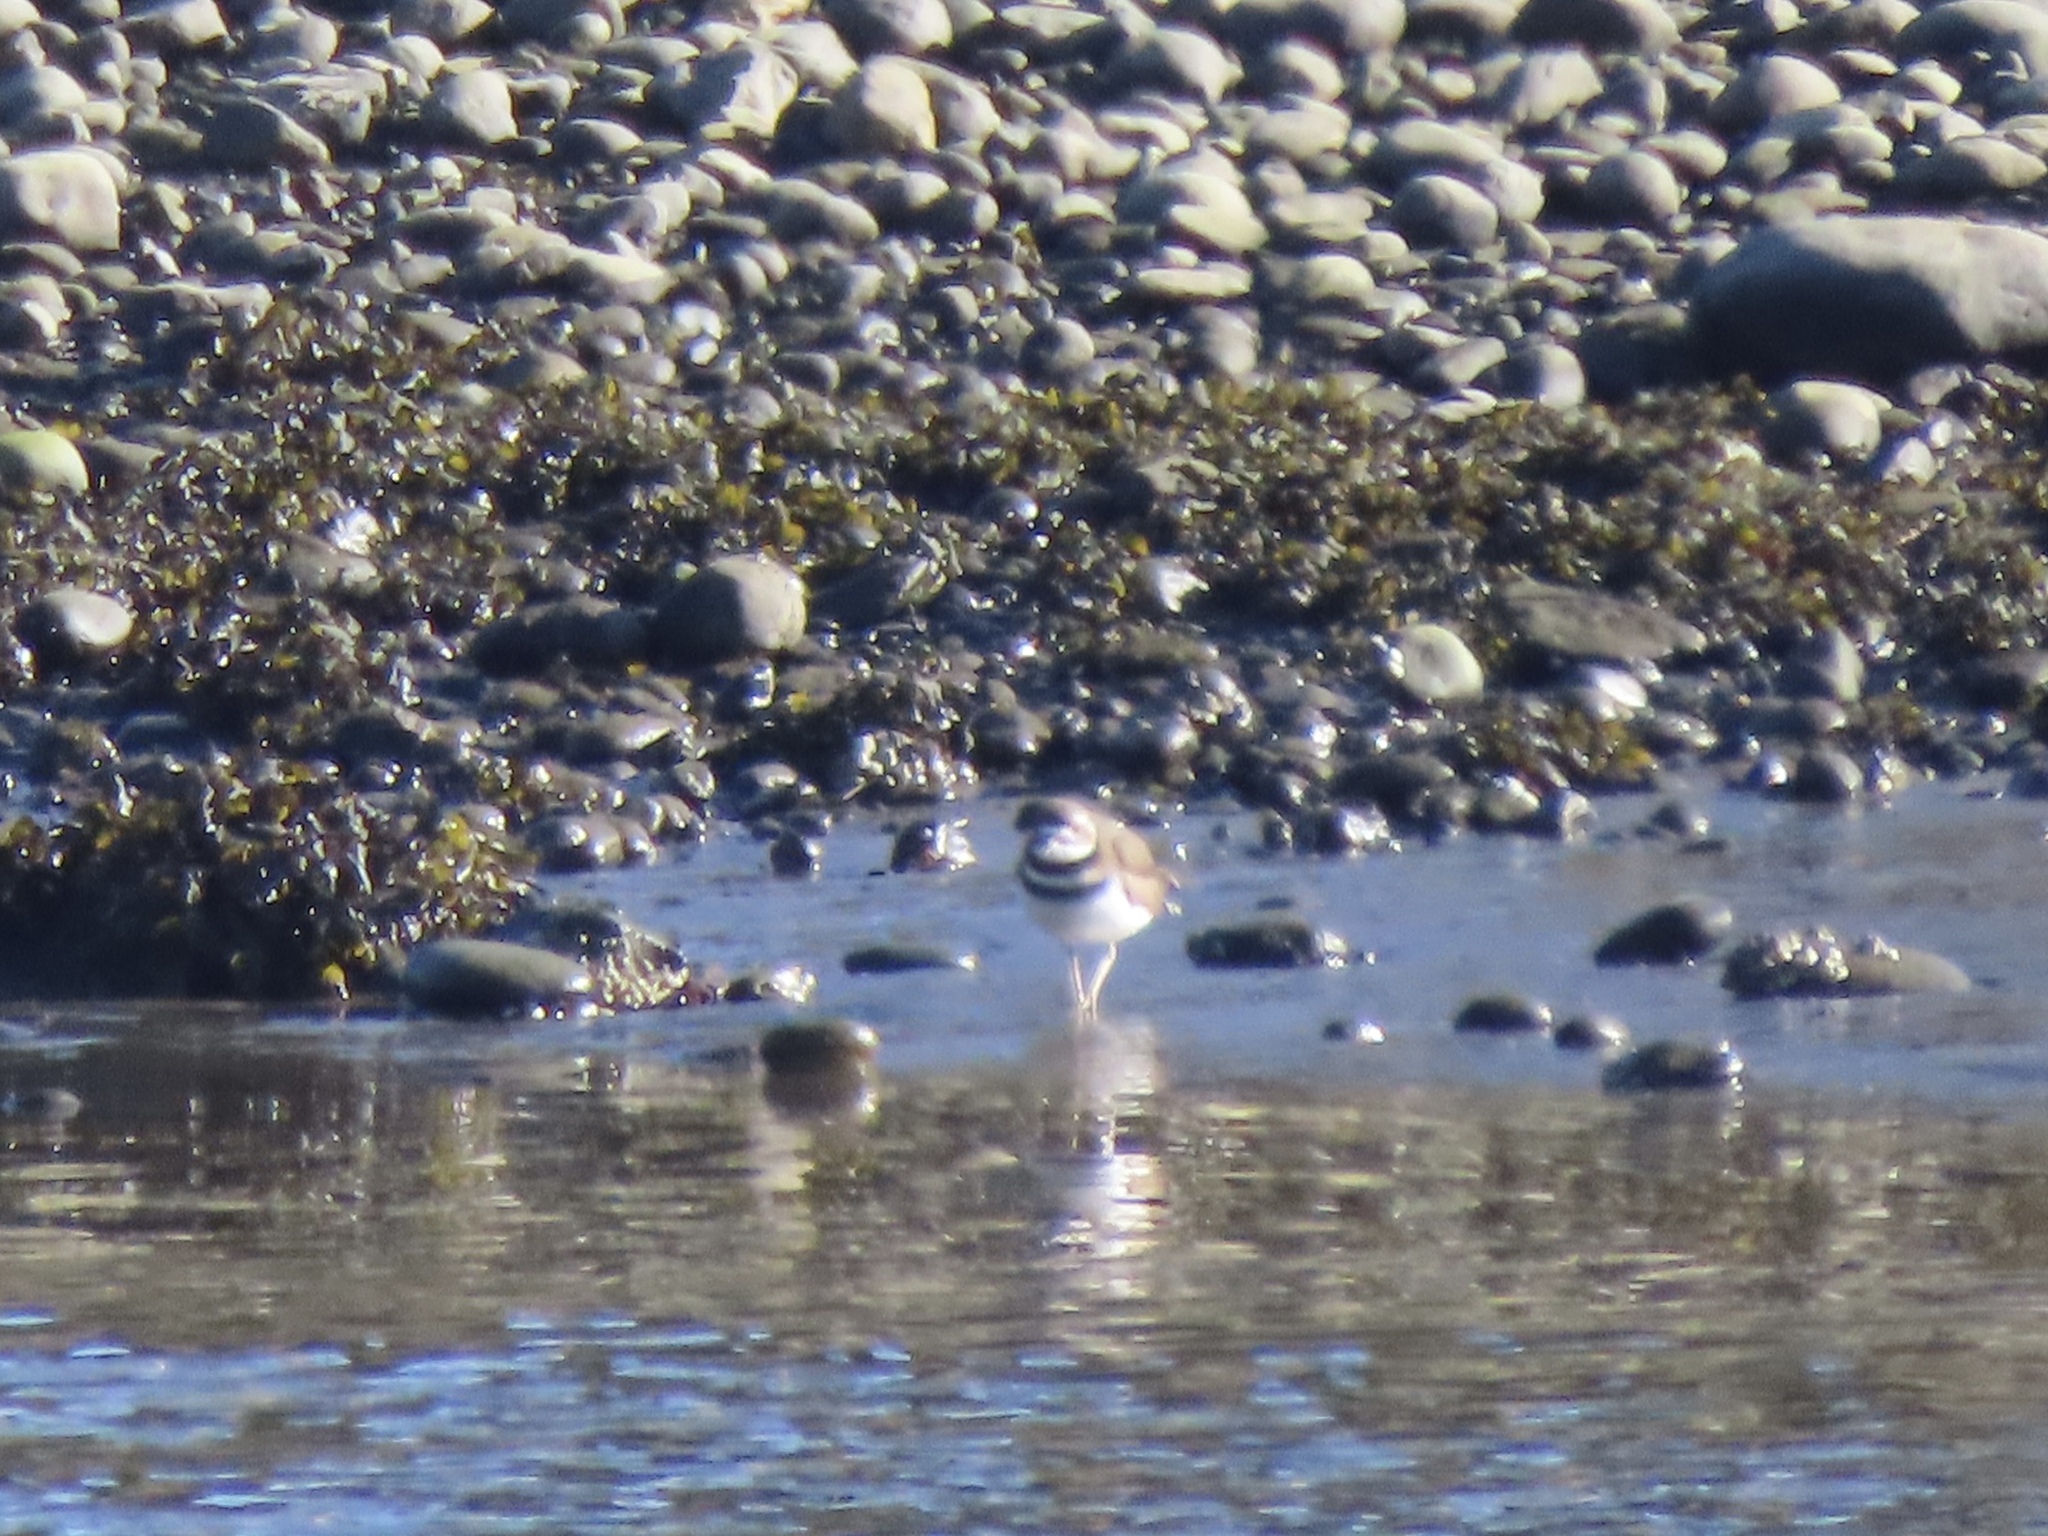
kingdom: Animalia
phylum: Chordata
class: Aves
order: Charadriiformes
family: Charadriidae
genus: Charadrius
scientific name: Charadrius vociferus
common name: Killdeer
